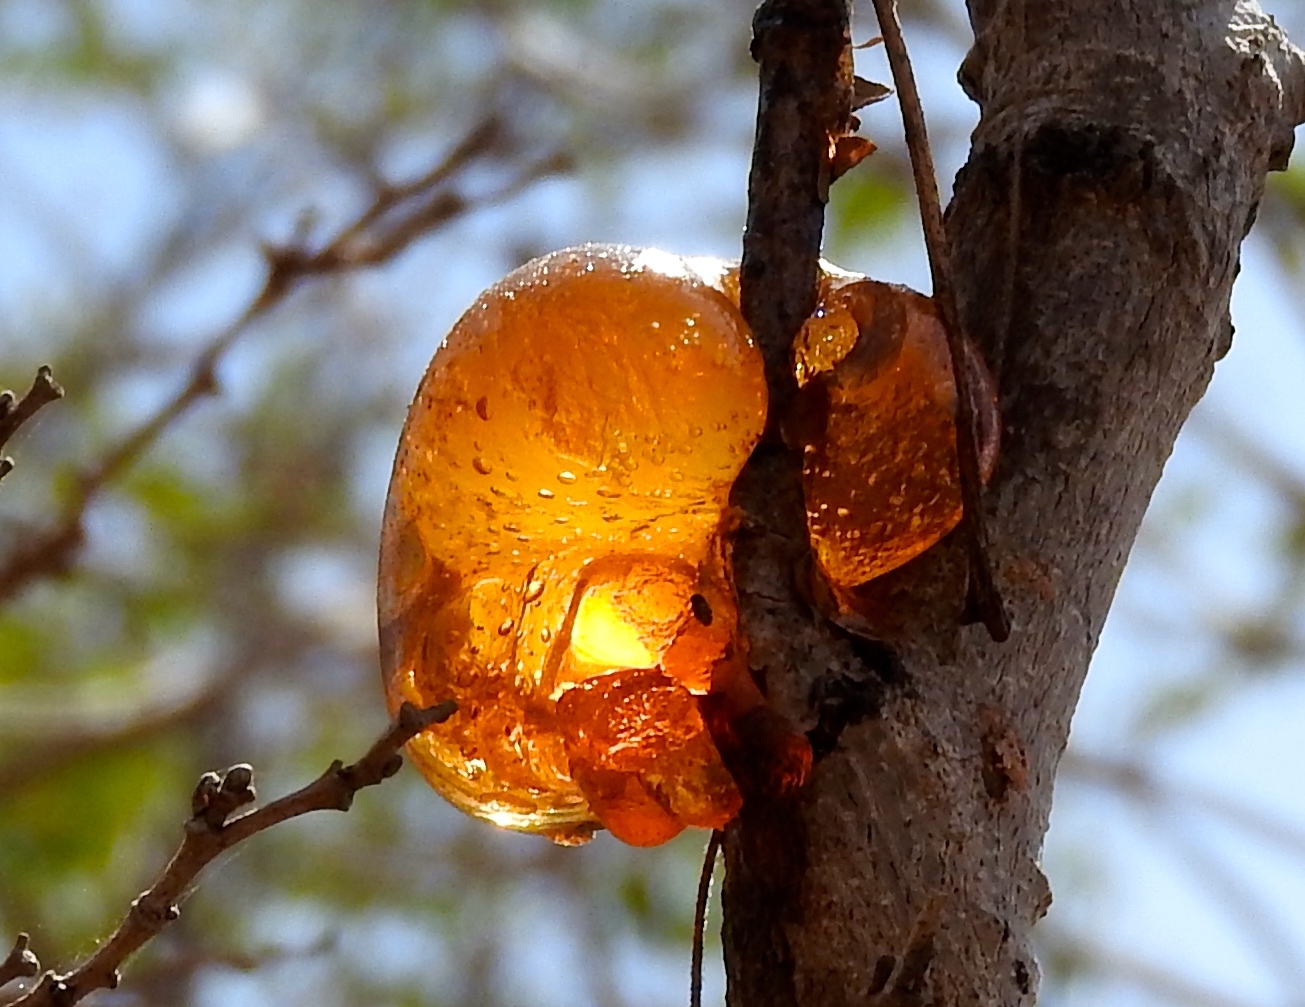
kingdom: Plantae
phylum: Tracheophyta
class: Magnoliopsida
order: Fabales
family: Fabaceae
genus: Cenostigma
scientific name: Cenostigma eriostachys
